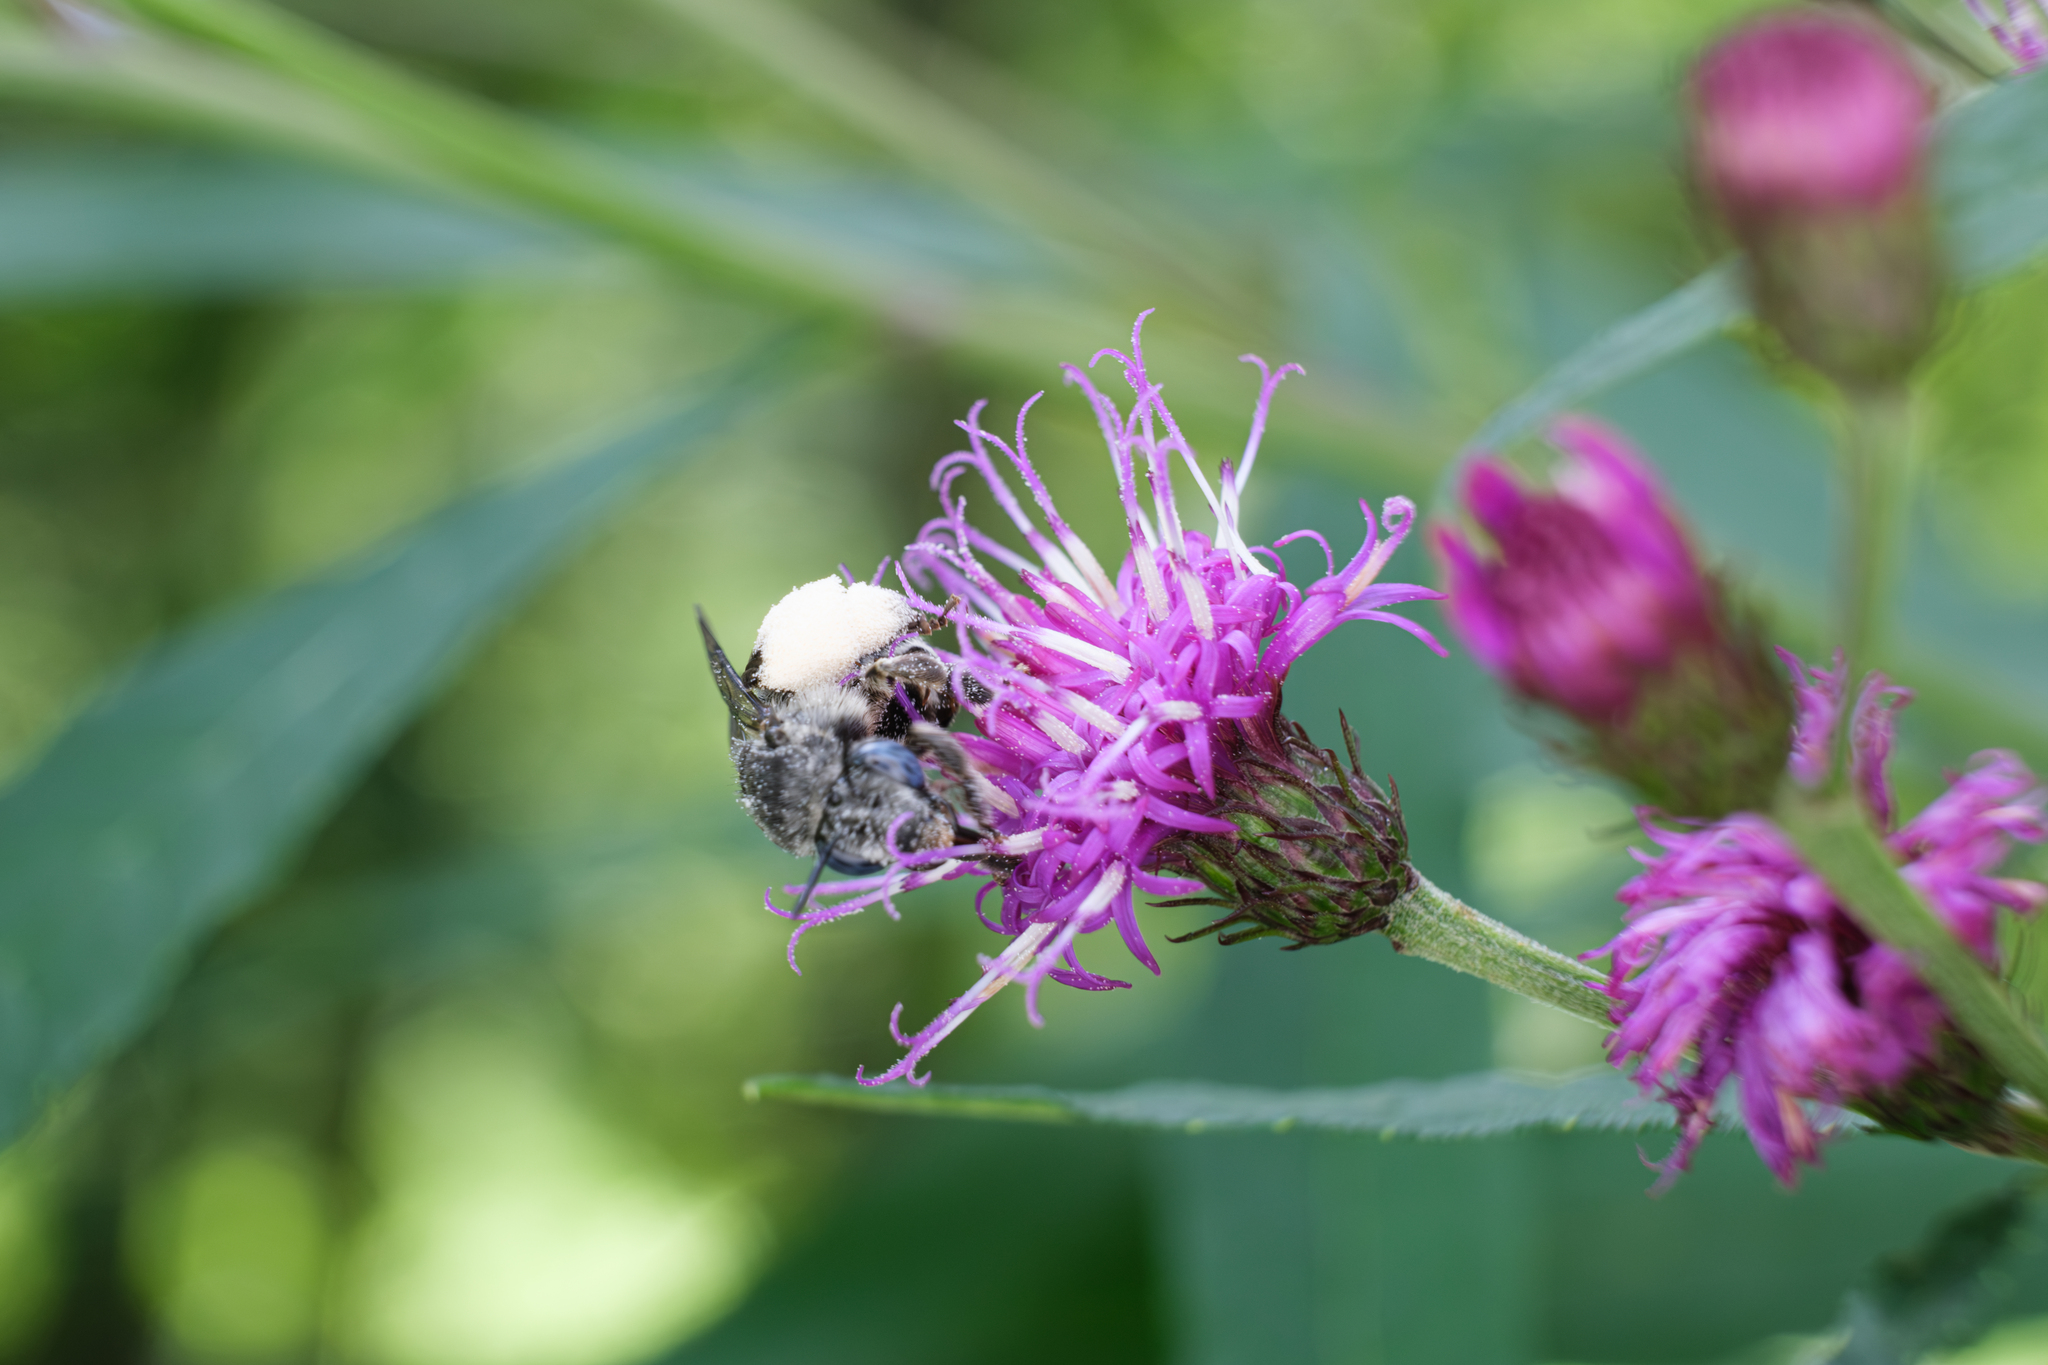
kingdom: Animalia
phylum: Arthropoda
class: Insecta
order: Hymenoptera
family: Apidae
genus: Melissodes
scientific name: Melissodes denticulatus
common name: Denticulate long-horned bee
